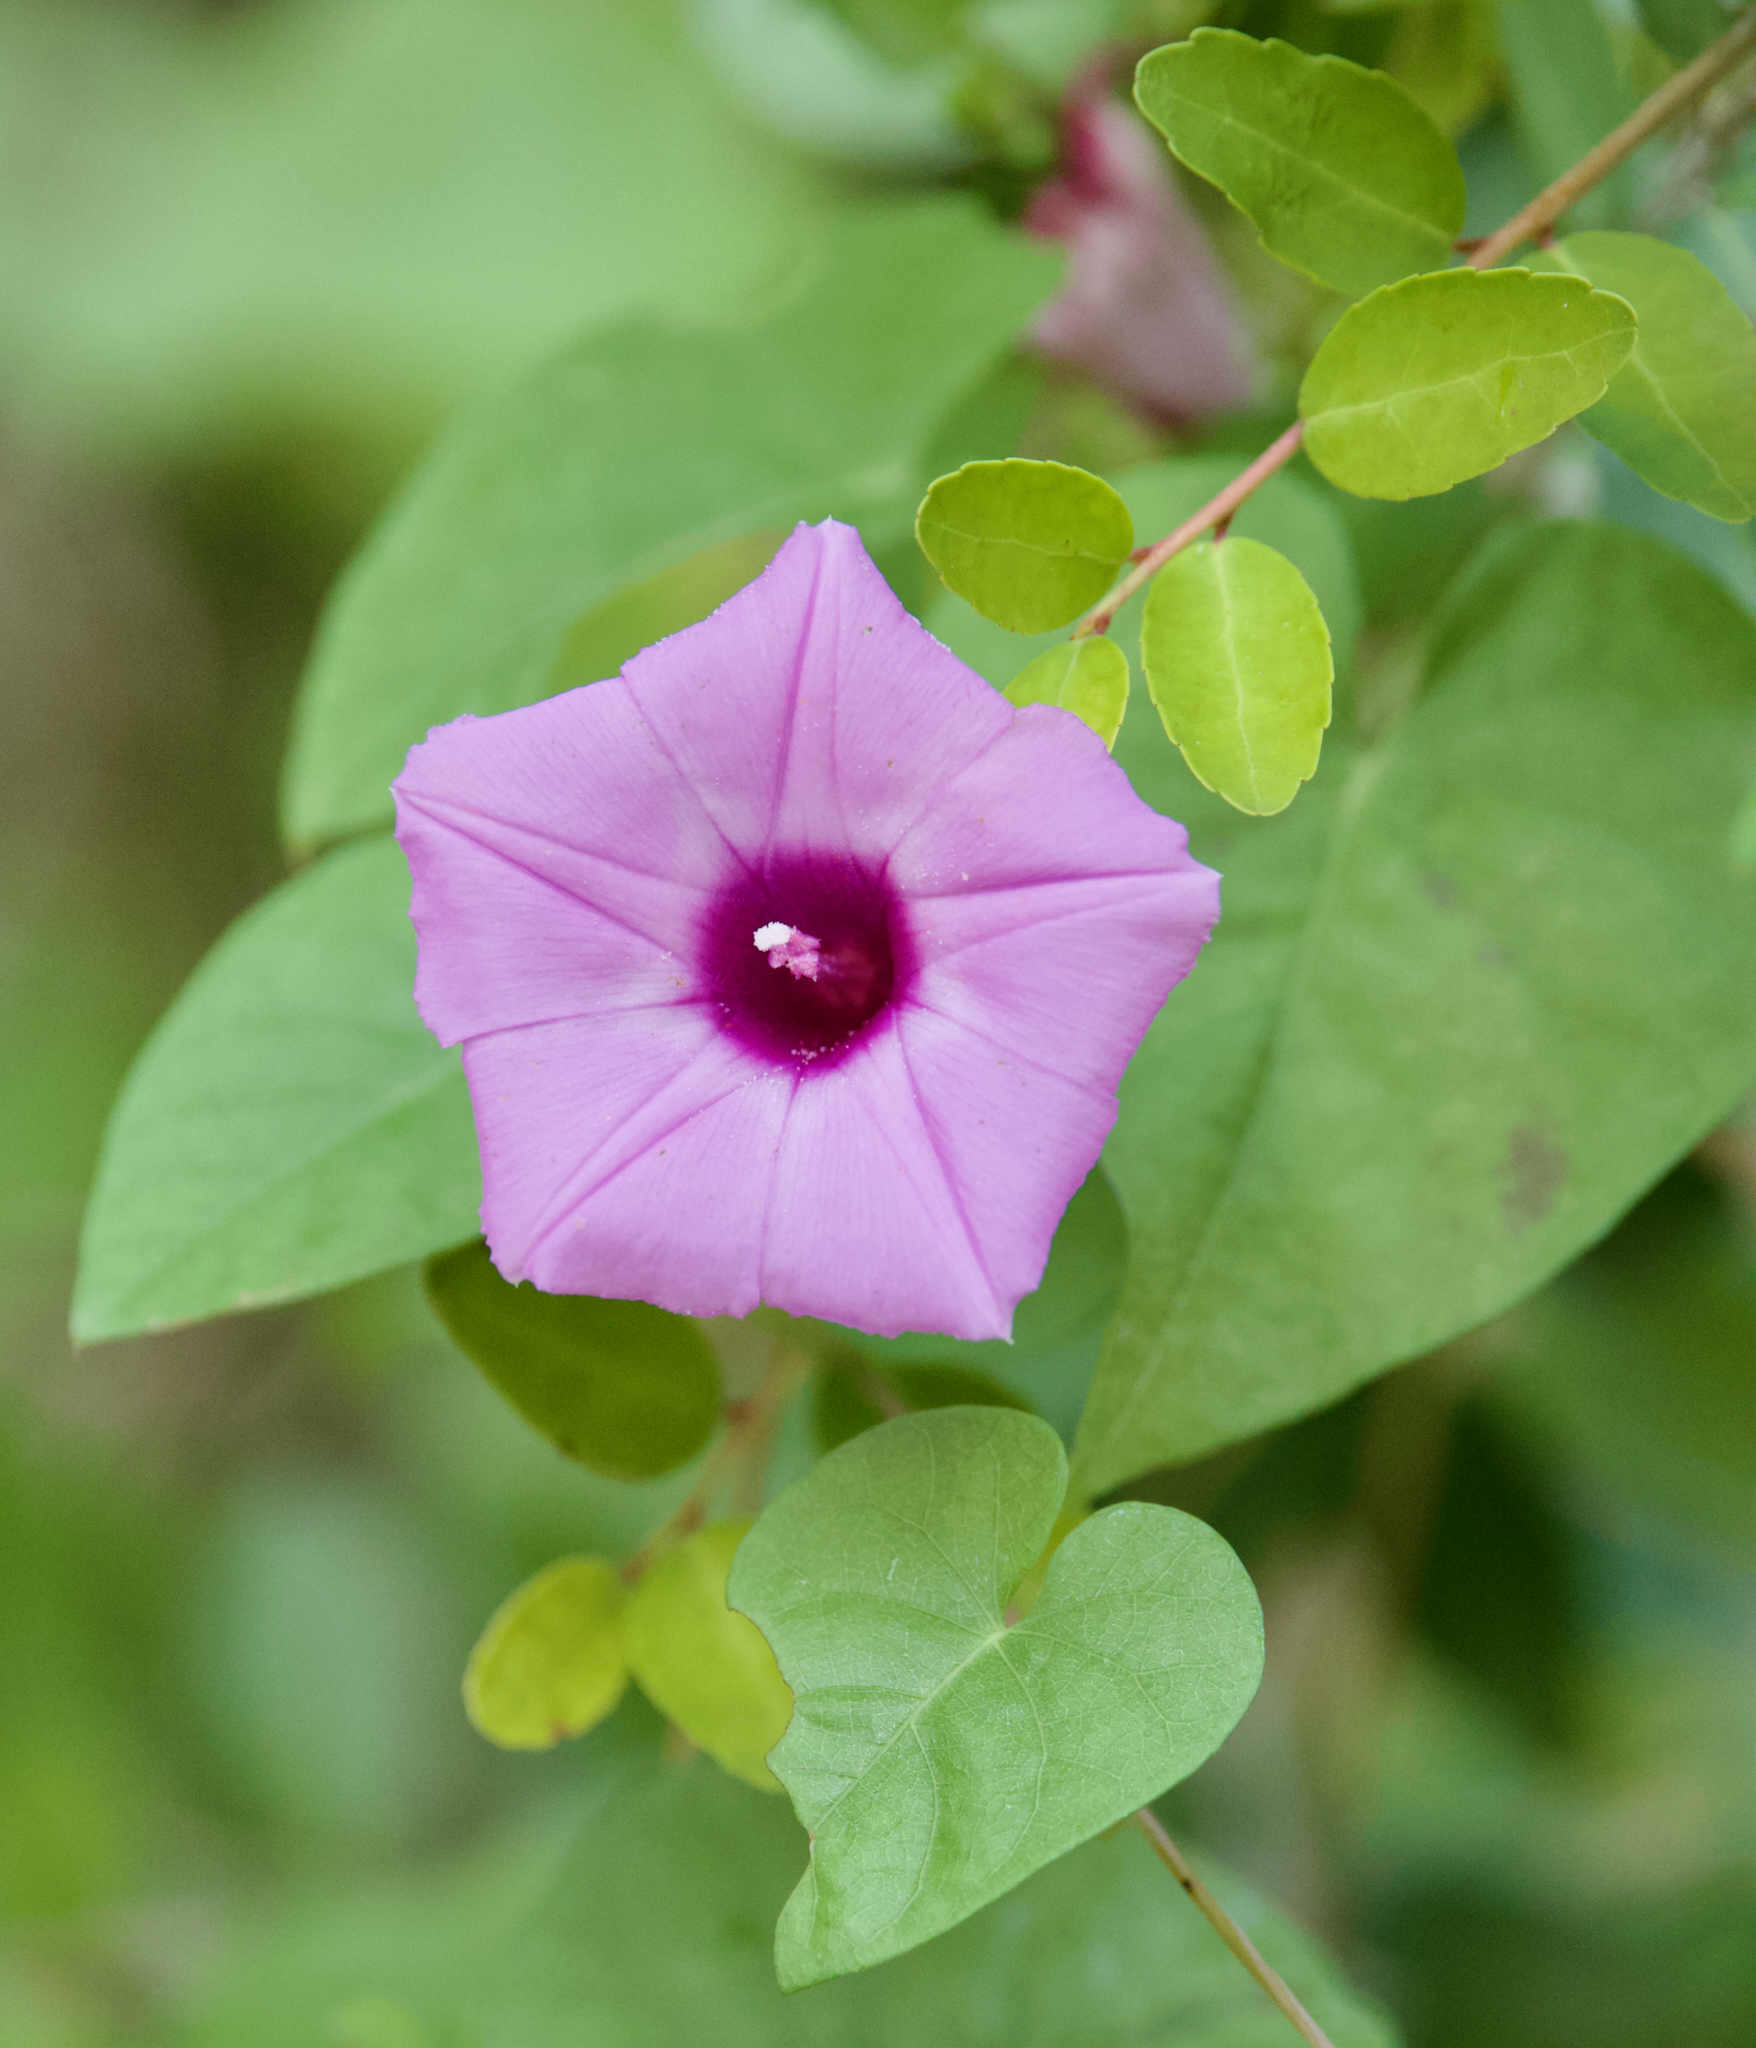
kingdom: Plantae
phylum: Tracheophyta
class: Magnoliopsida
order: Solanales
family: Convolvulaceae
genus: Ipomoea
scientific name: Ipomoea cordatotriloba
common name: Cotton morning glory
